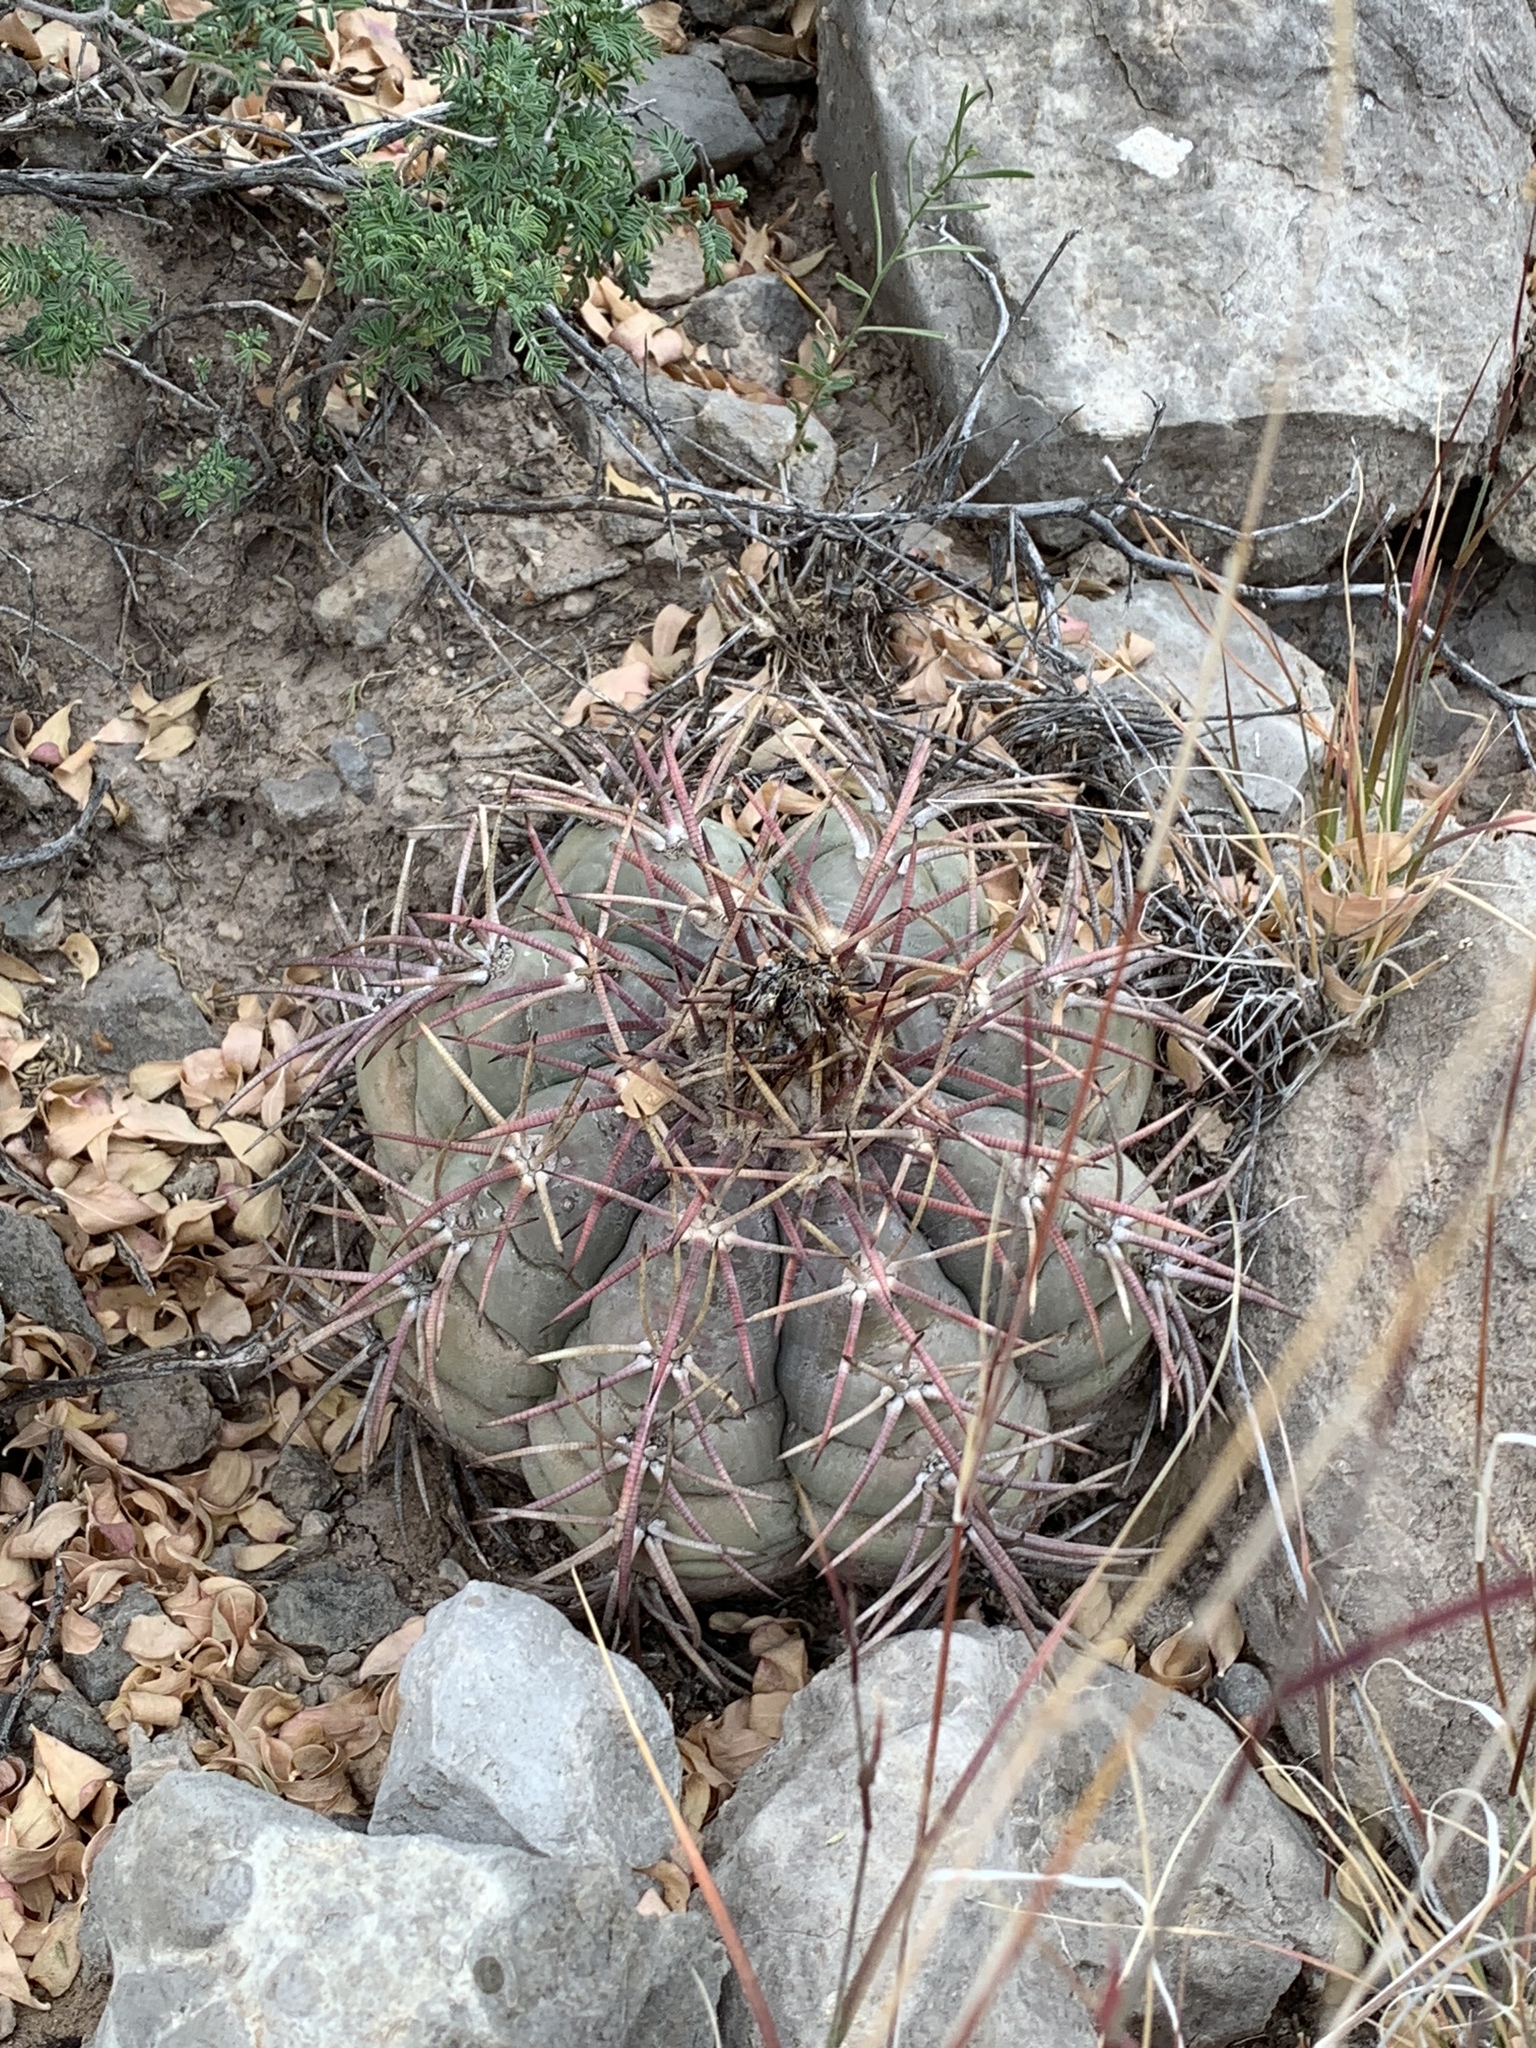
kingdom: Plantae
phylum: Tracheophyta
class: Magnoliopsida
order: Caryophyllales
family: Cactaceae
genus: Echinocactus
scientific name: Echinocactus horizonthalonius
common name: Devilshead
